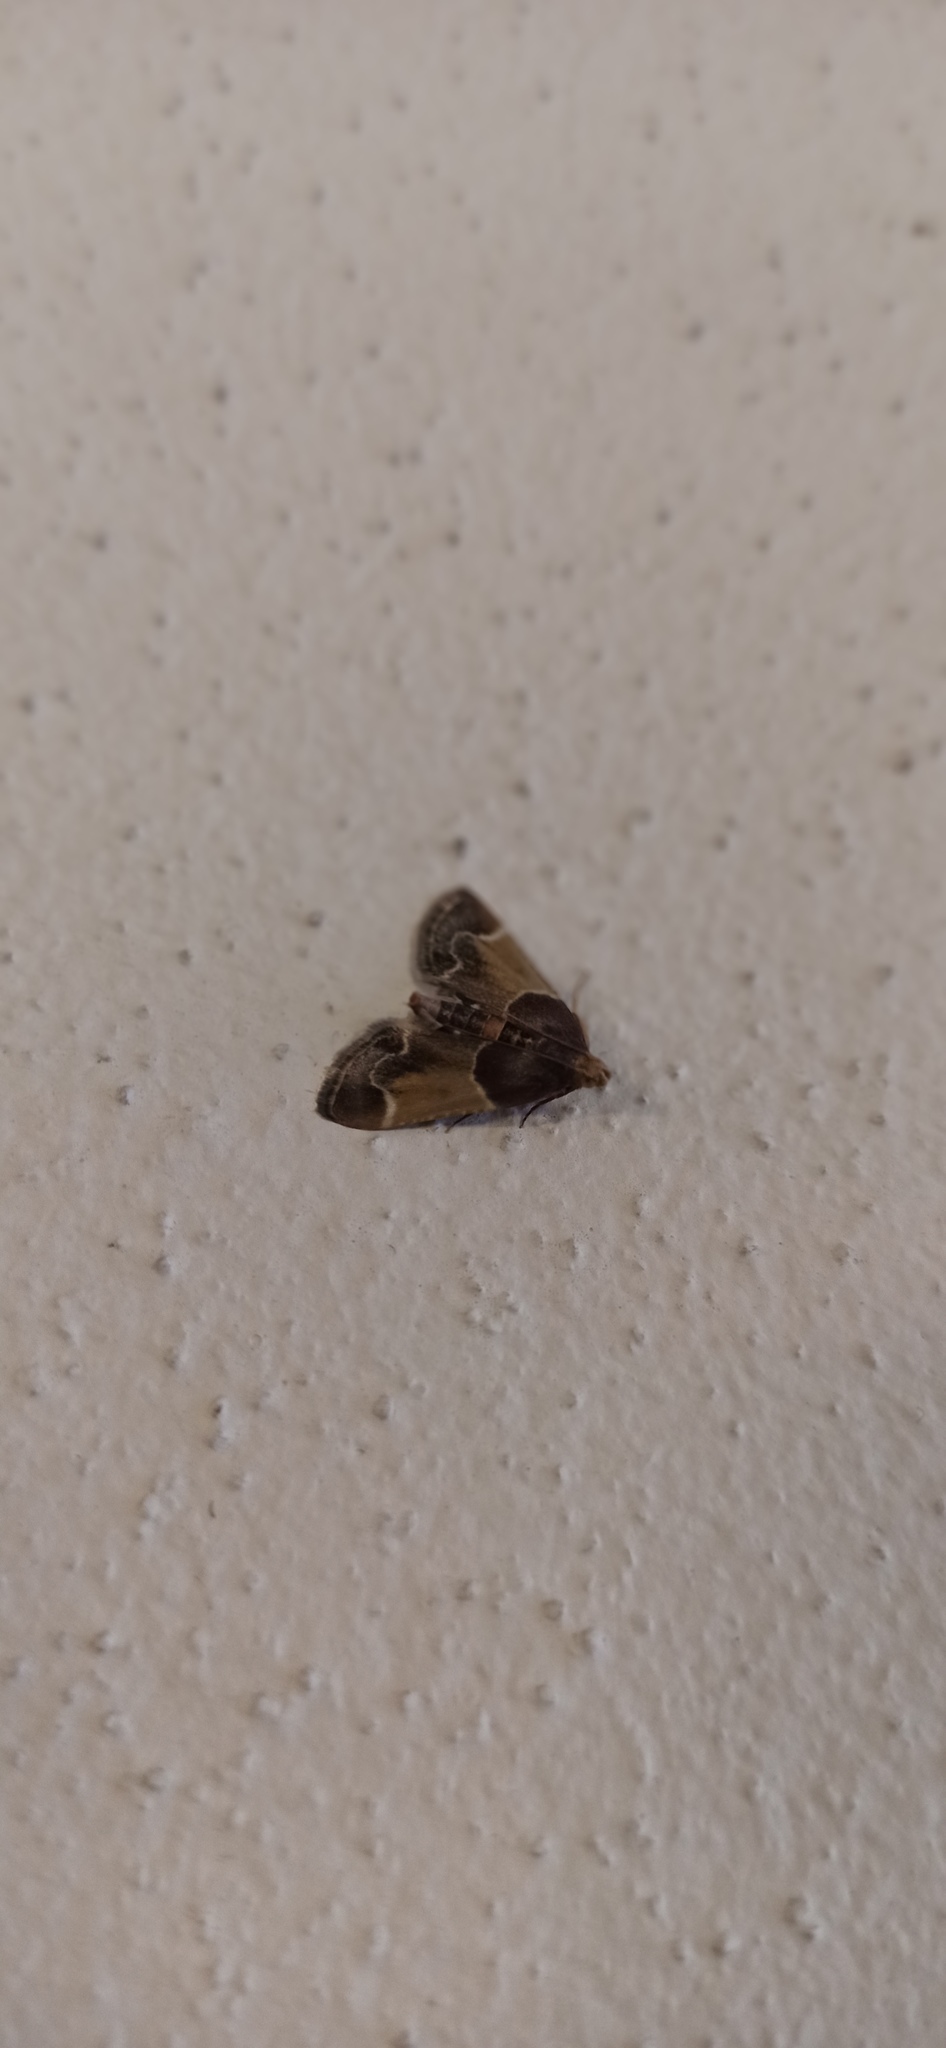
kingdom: Animalia
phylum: Arthropoda
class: Insecta
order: Lepidoptera
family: Pyralidae
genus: Pyralis
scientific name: Pyralis farinalis
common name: Meal moth
